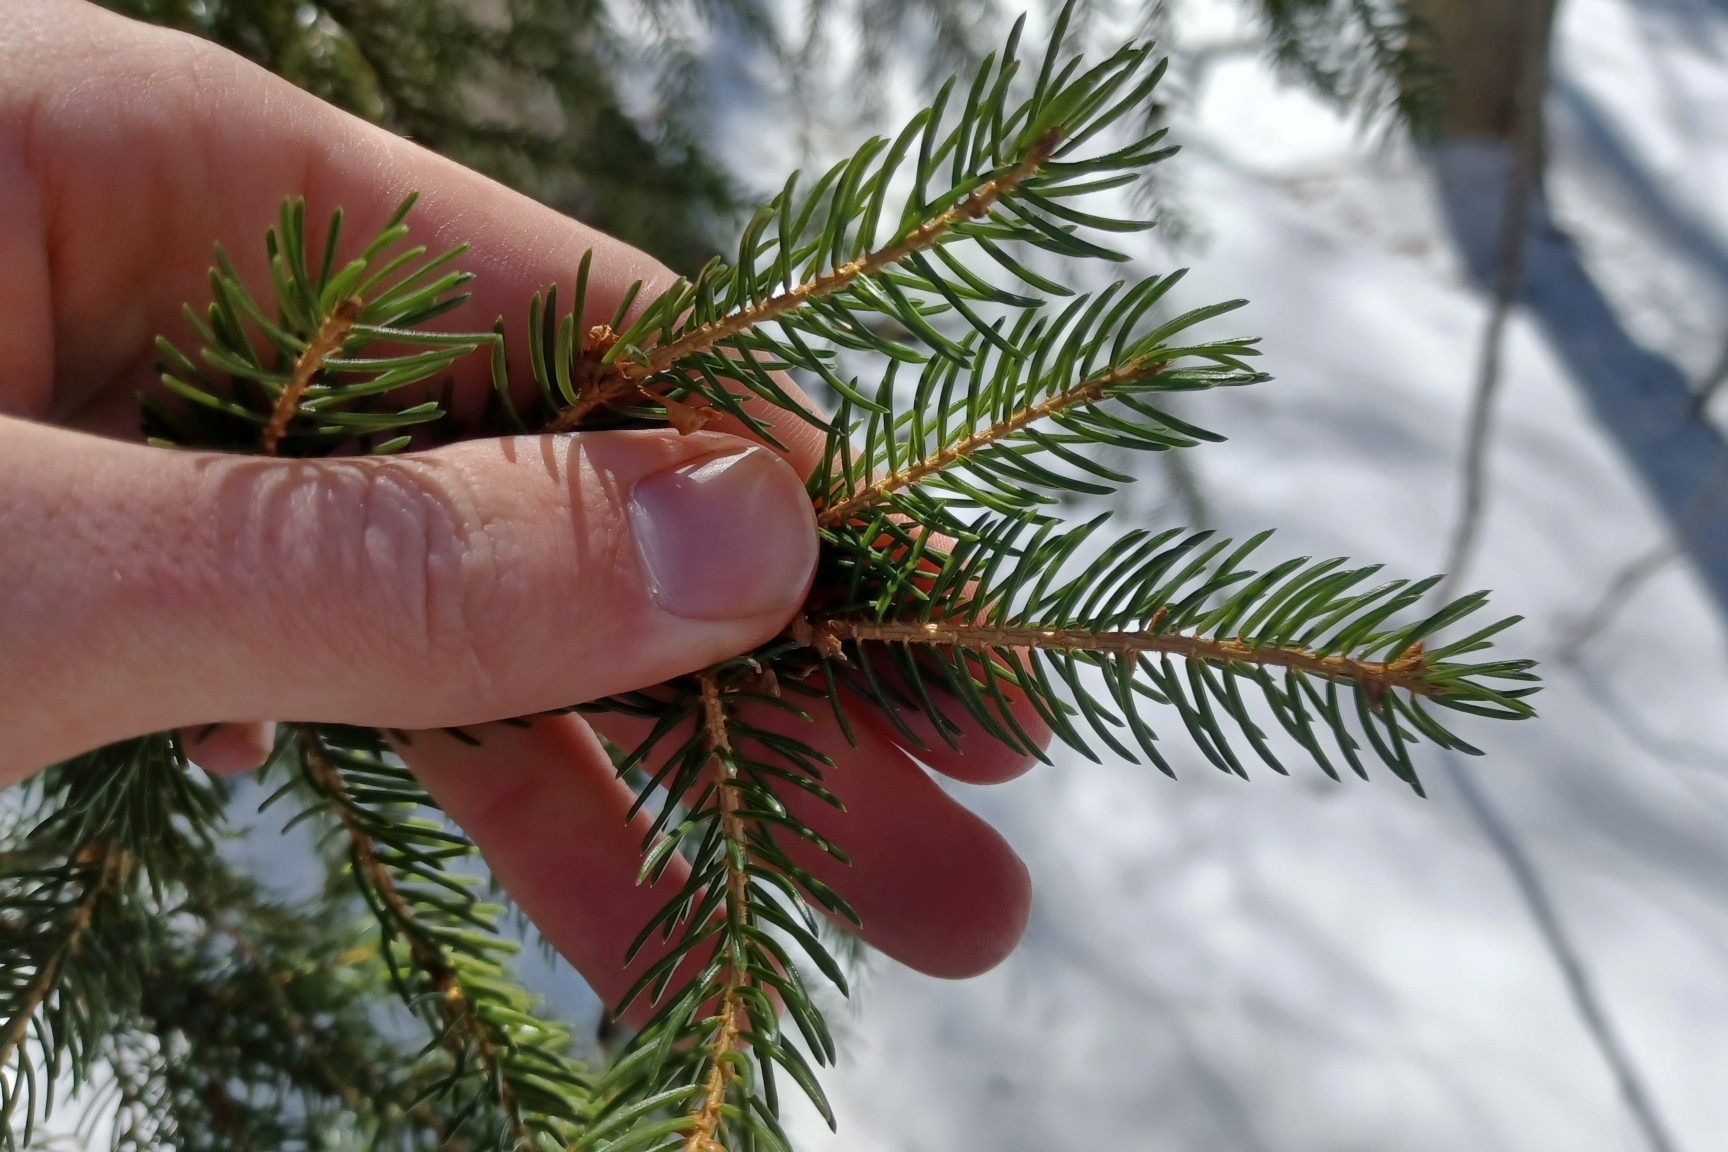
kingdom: Plantae
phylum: Tracheophyta
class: Pinopsida
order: Pinales
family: Pinaceae
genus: Picea
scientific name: Picea rubens
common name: Red spruce
